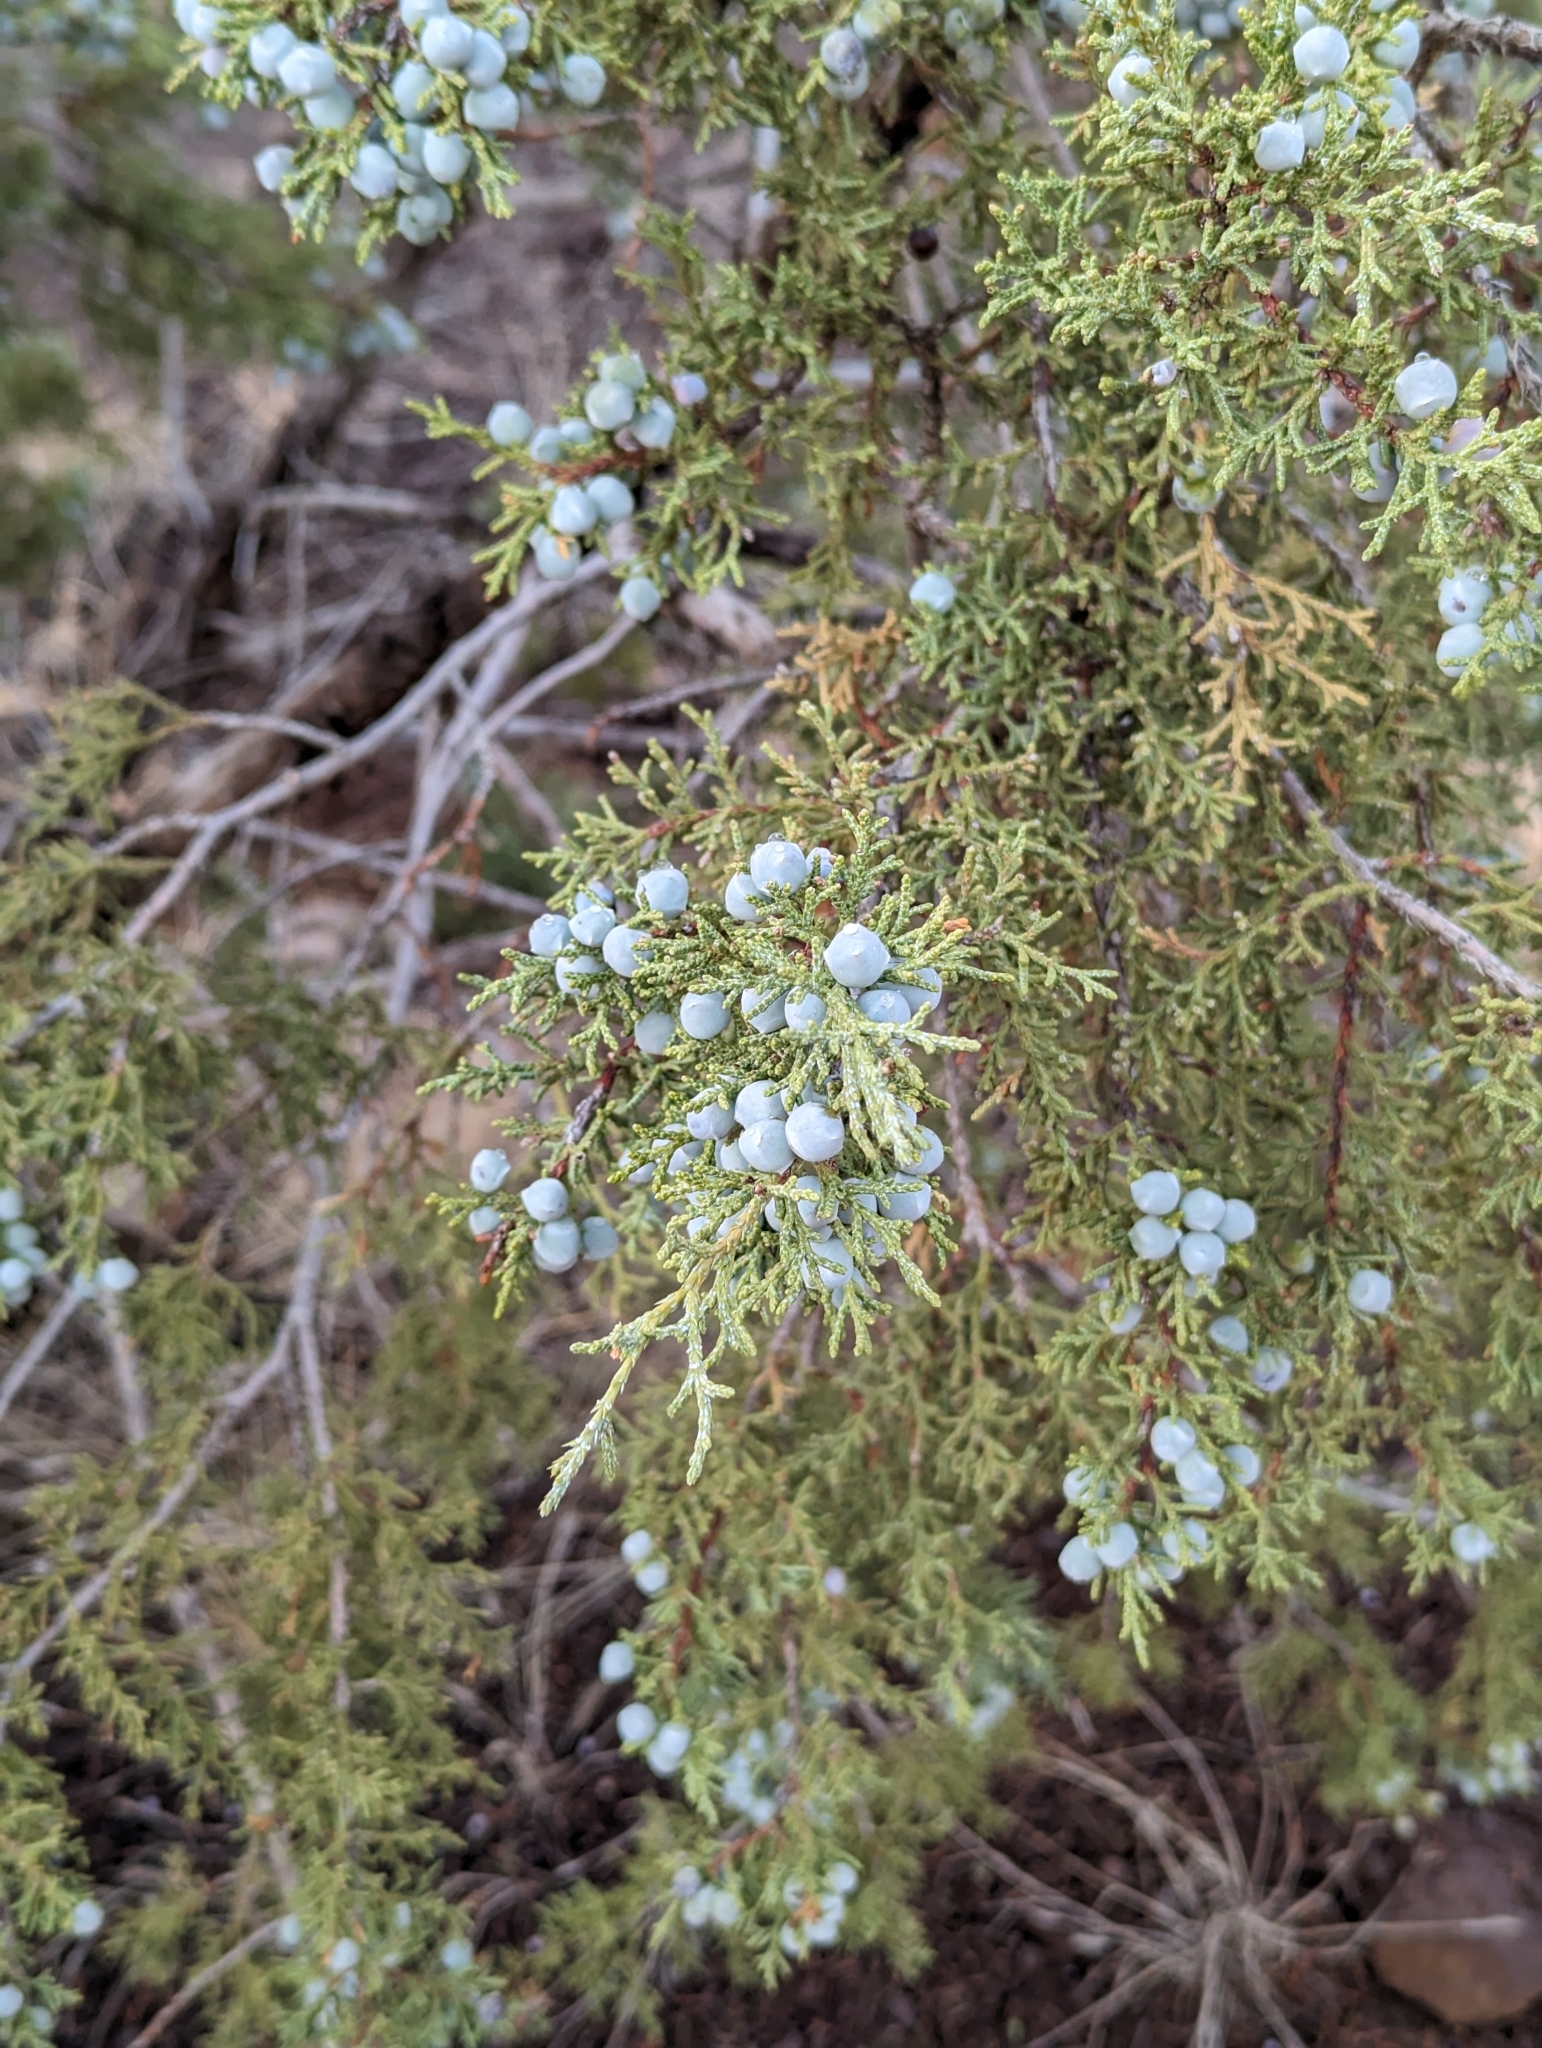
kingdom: Plantae
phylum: Tracheophyta
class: Pinopsida
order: Pinales
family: Cupressaceae
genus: Juniperus
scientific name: Juniperus osteosperma
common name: Utah juniper
